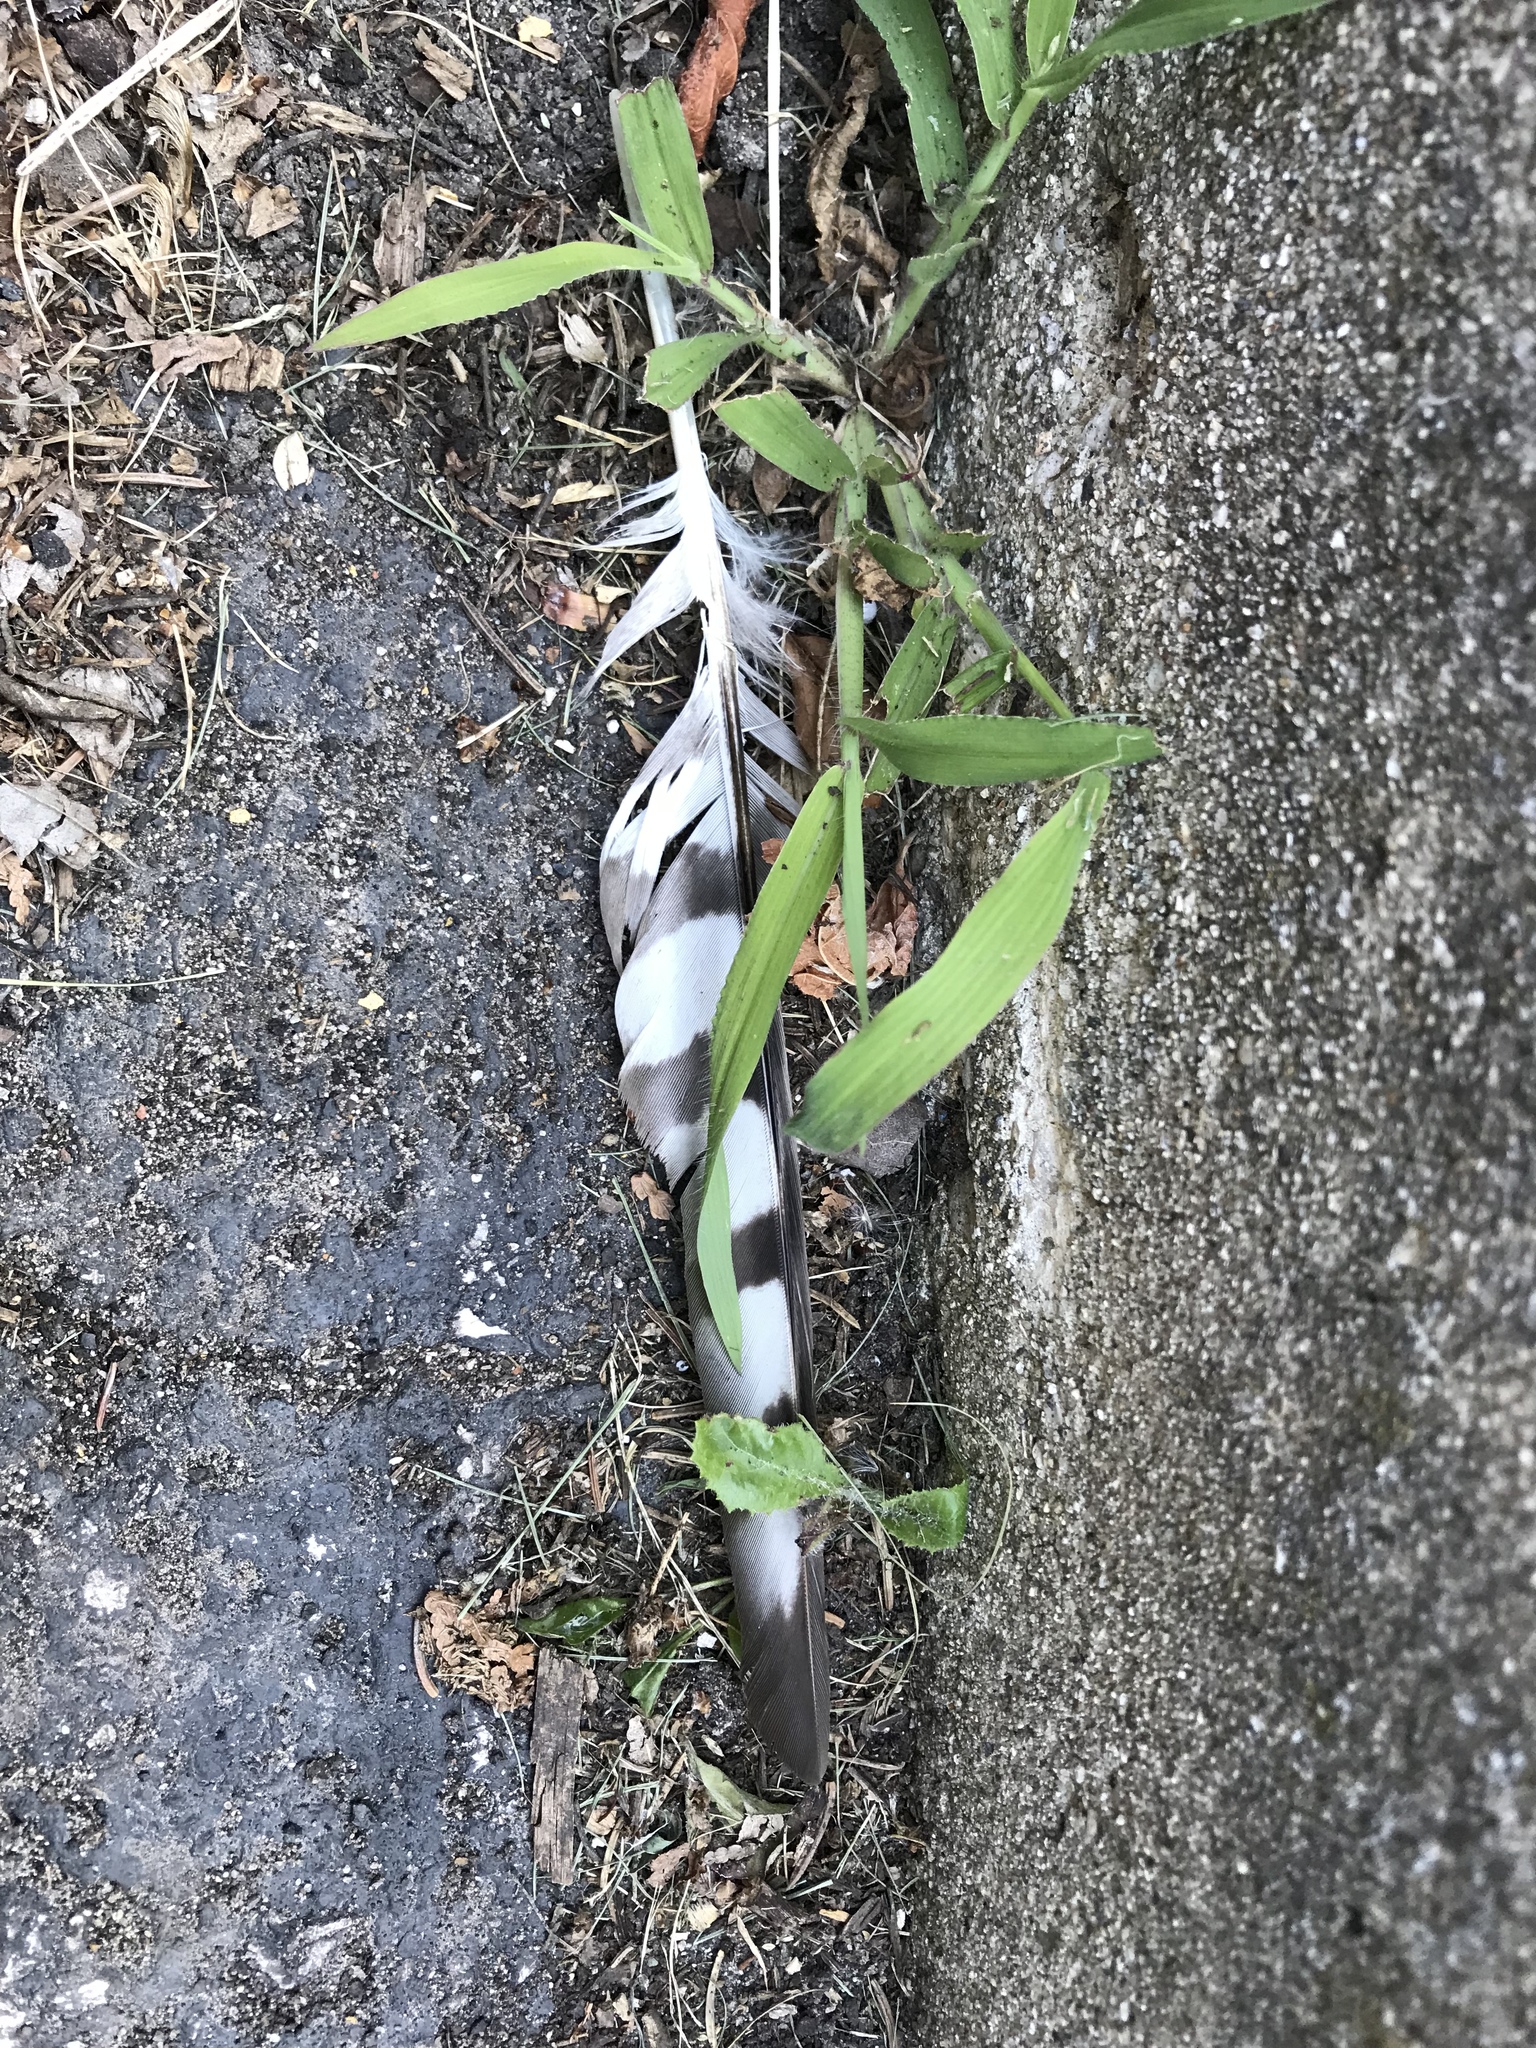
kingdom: Animalia
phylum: Chordata
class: Aves
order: Accipitriformes
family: Accipitridae
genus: Accipiter
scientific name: Accipiter cooperii
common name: Cooper's hawk
